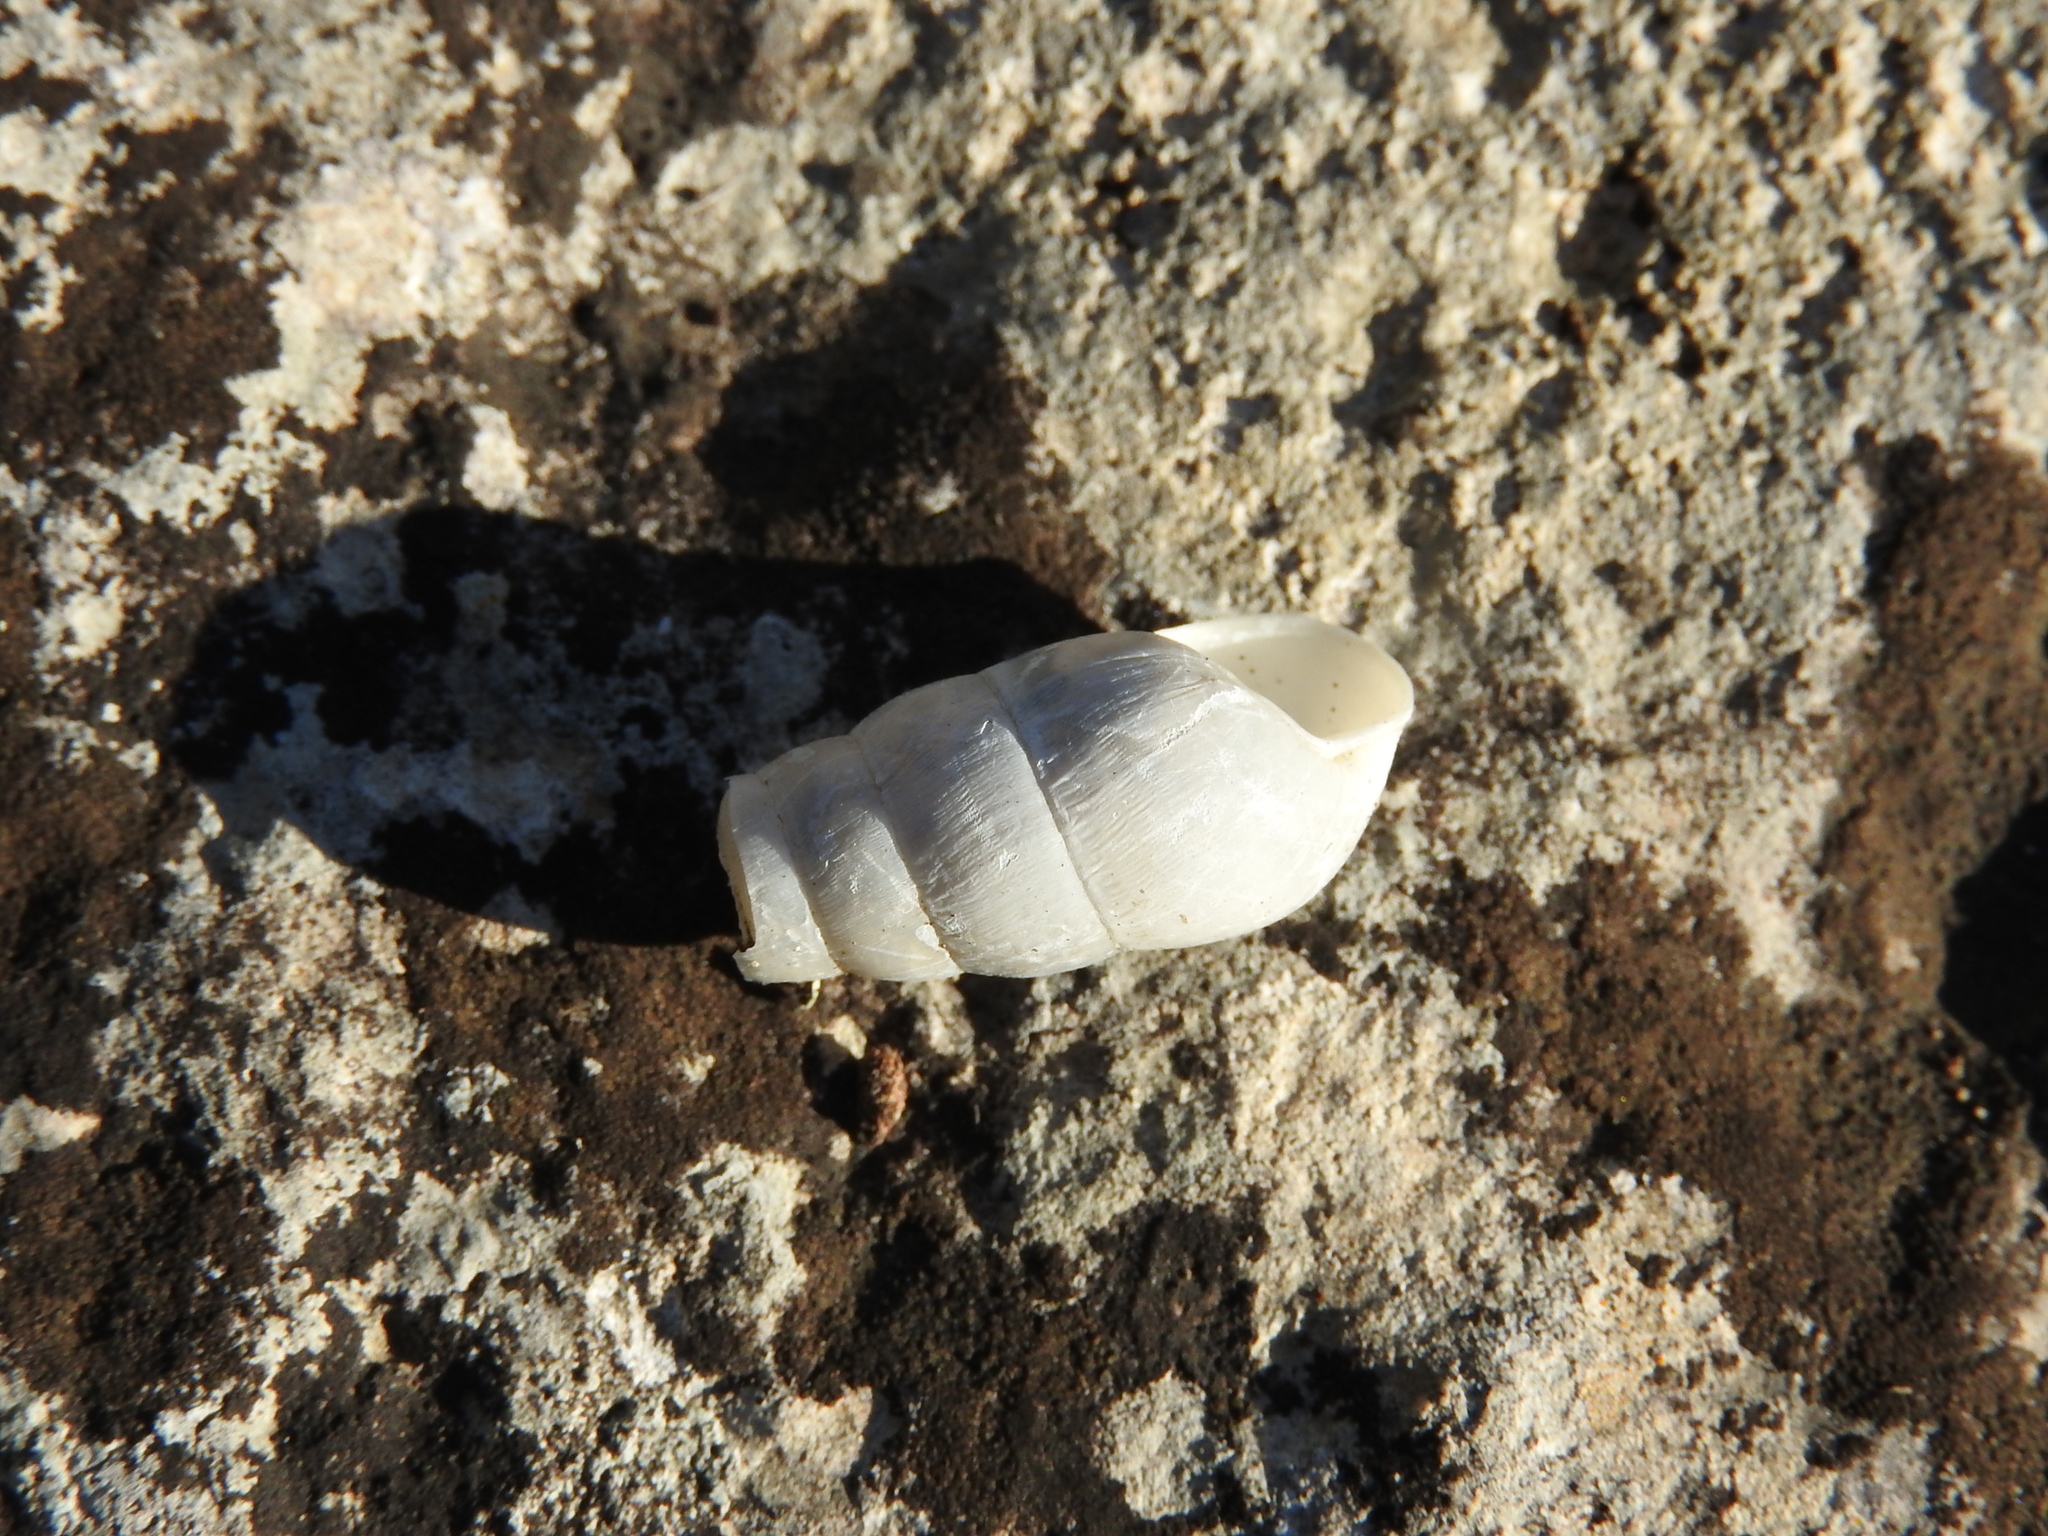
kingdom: Animalia
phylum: Mollusca
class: Gastropoda
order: Stylommatophora
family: Achatinidae
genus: Rumina
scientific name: Rumina decollata
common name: Decollate snail
